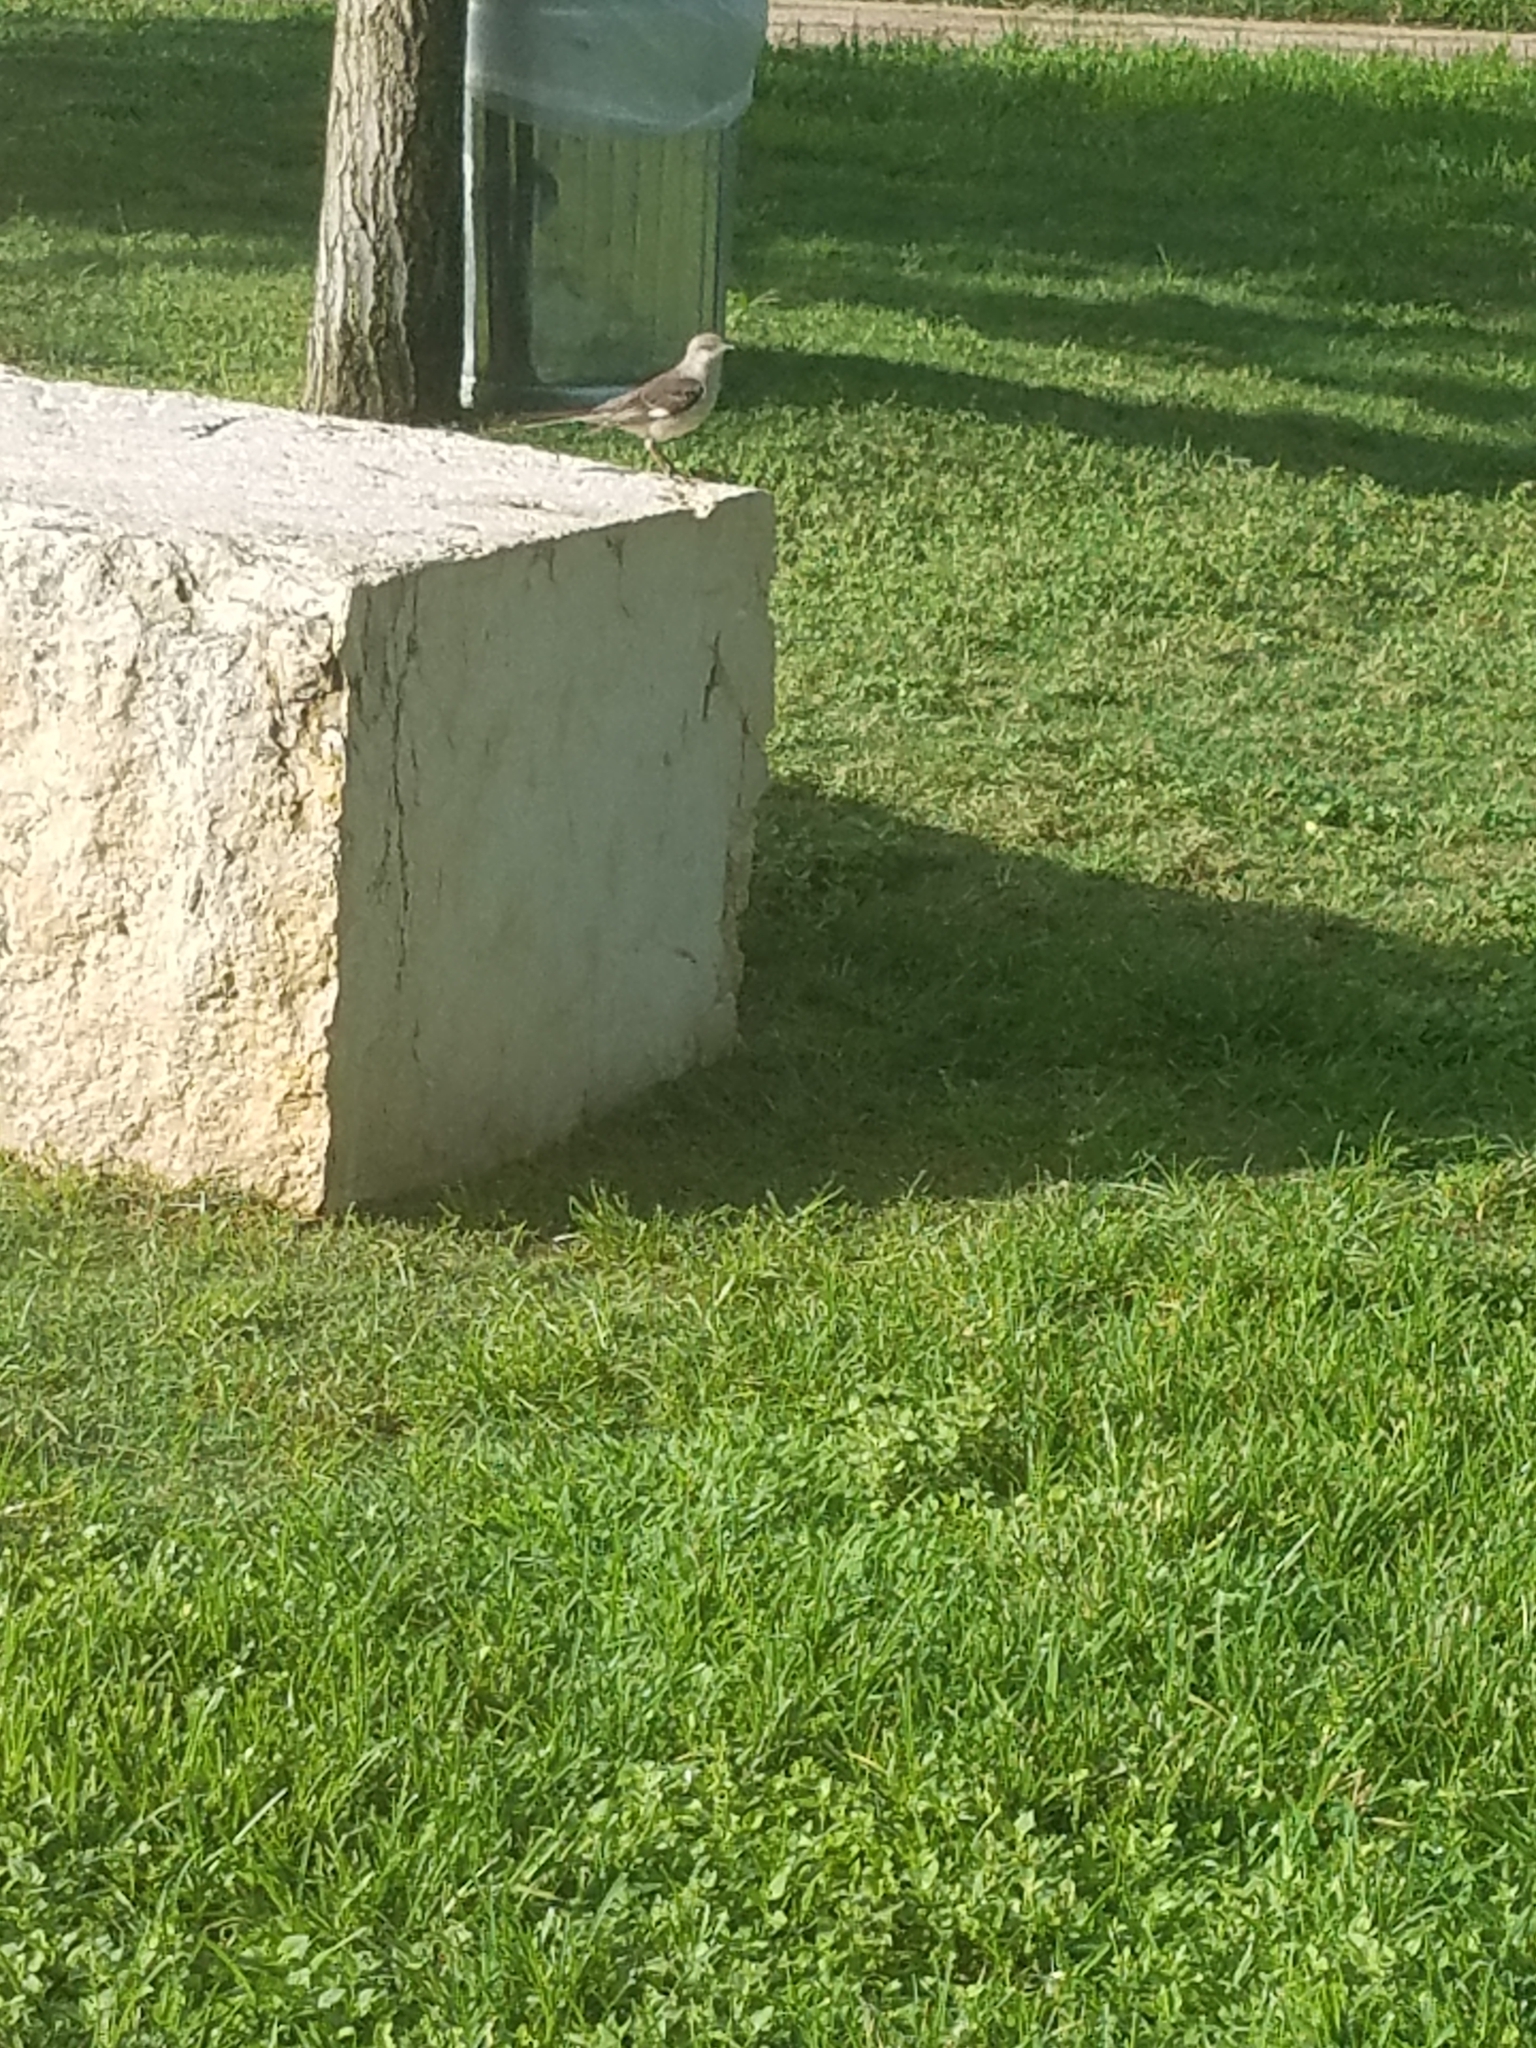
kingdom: Animalia
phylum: Chordata
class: Aves
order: Passeriformes
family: Mimidae
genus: Mimus
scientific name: Mimus polyglottos
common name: Northern mockingbird
